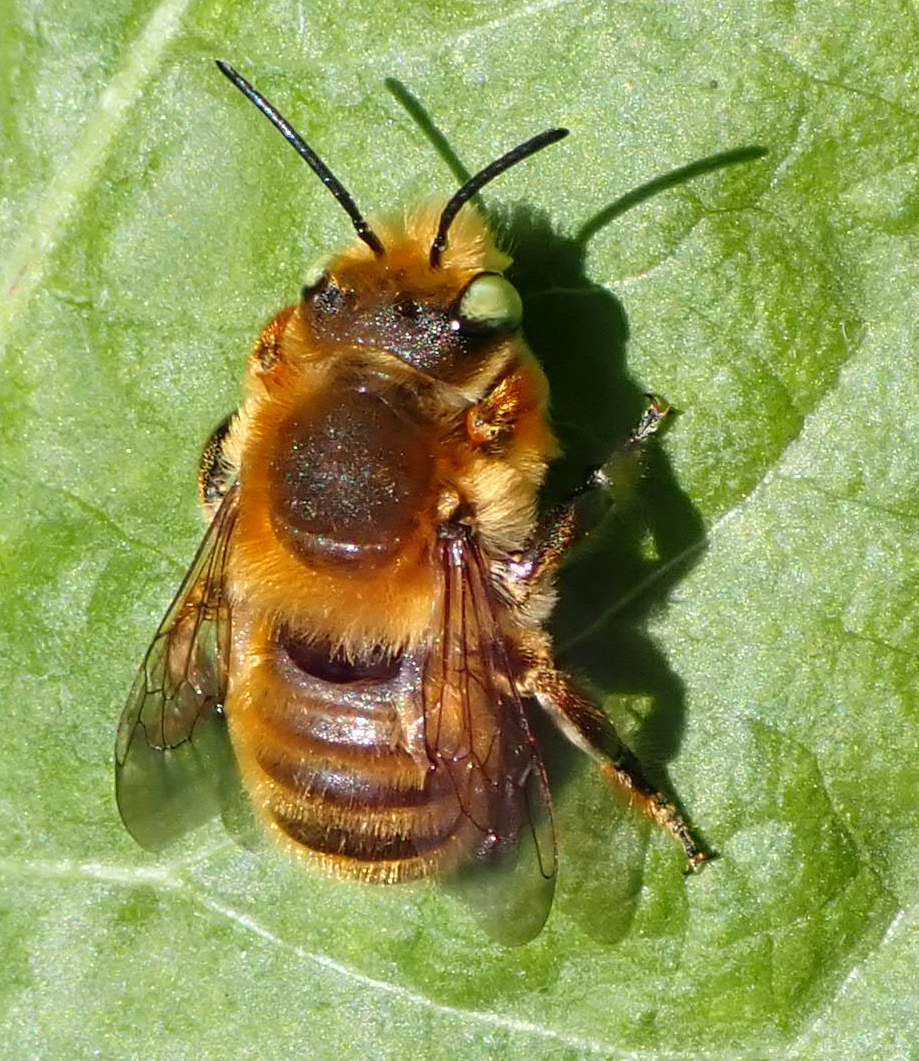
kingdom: Animalia
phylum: Arthropoda
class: Insecta
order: Hymenoptera
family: Megachilidae
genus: Megachile
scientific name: Megachile latimanus
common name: Leafcutting bee
